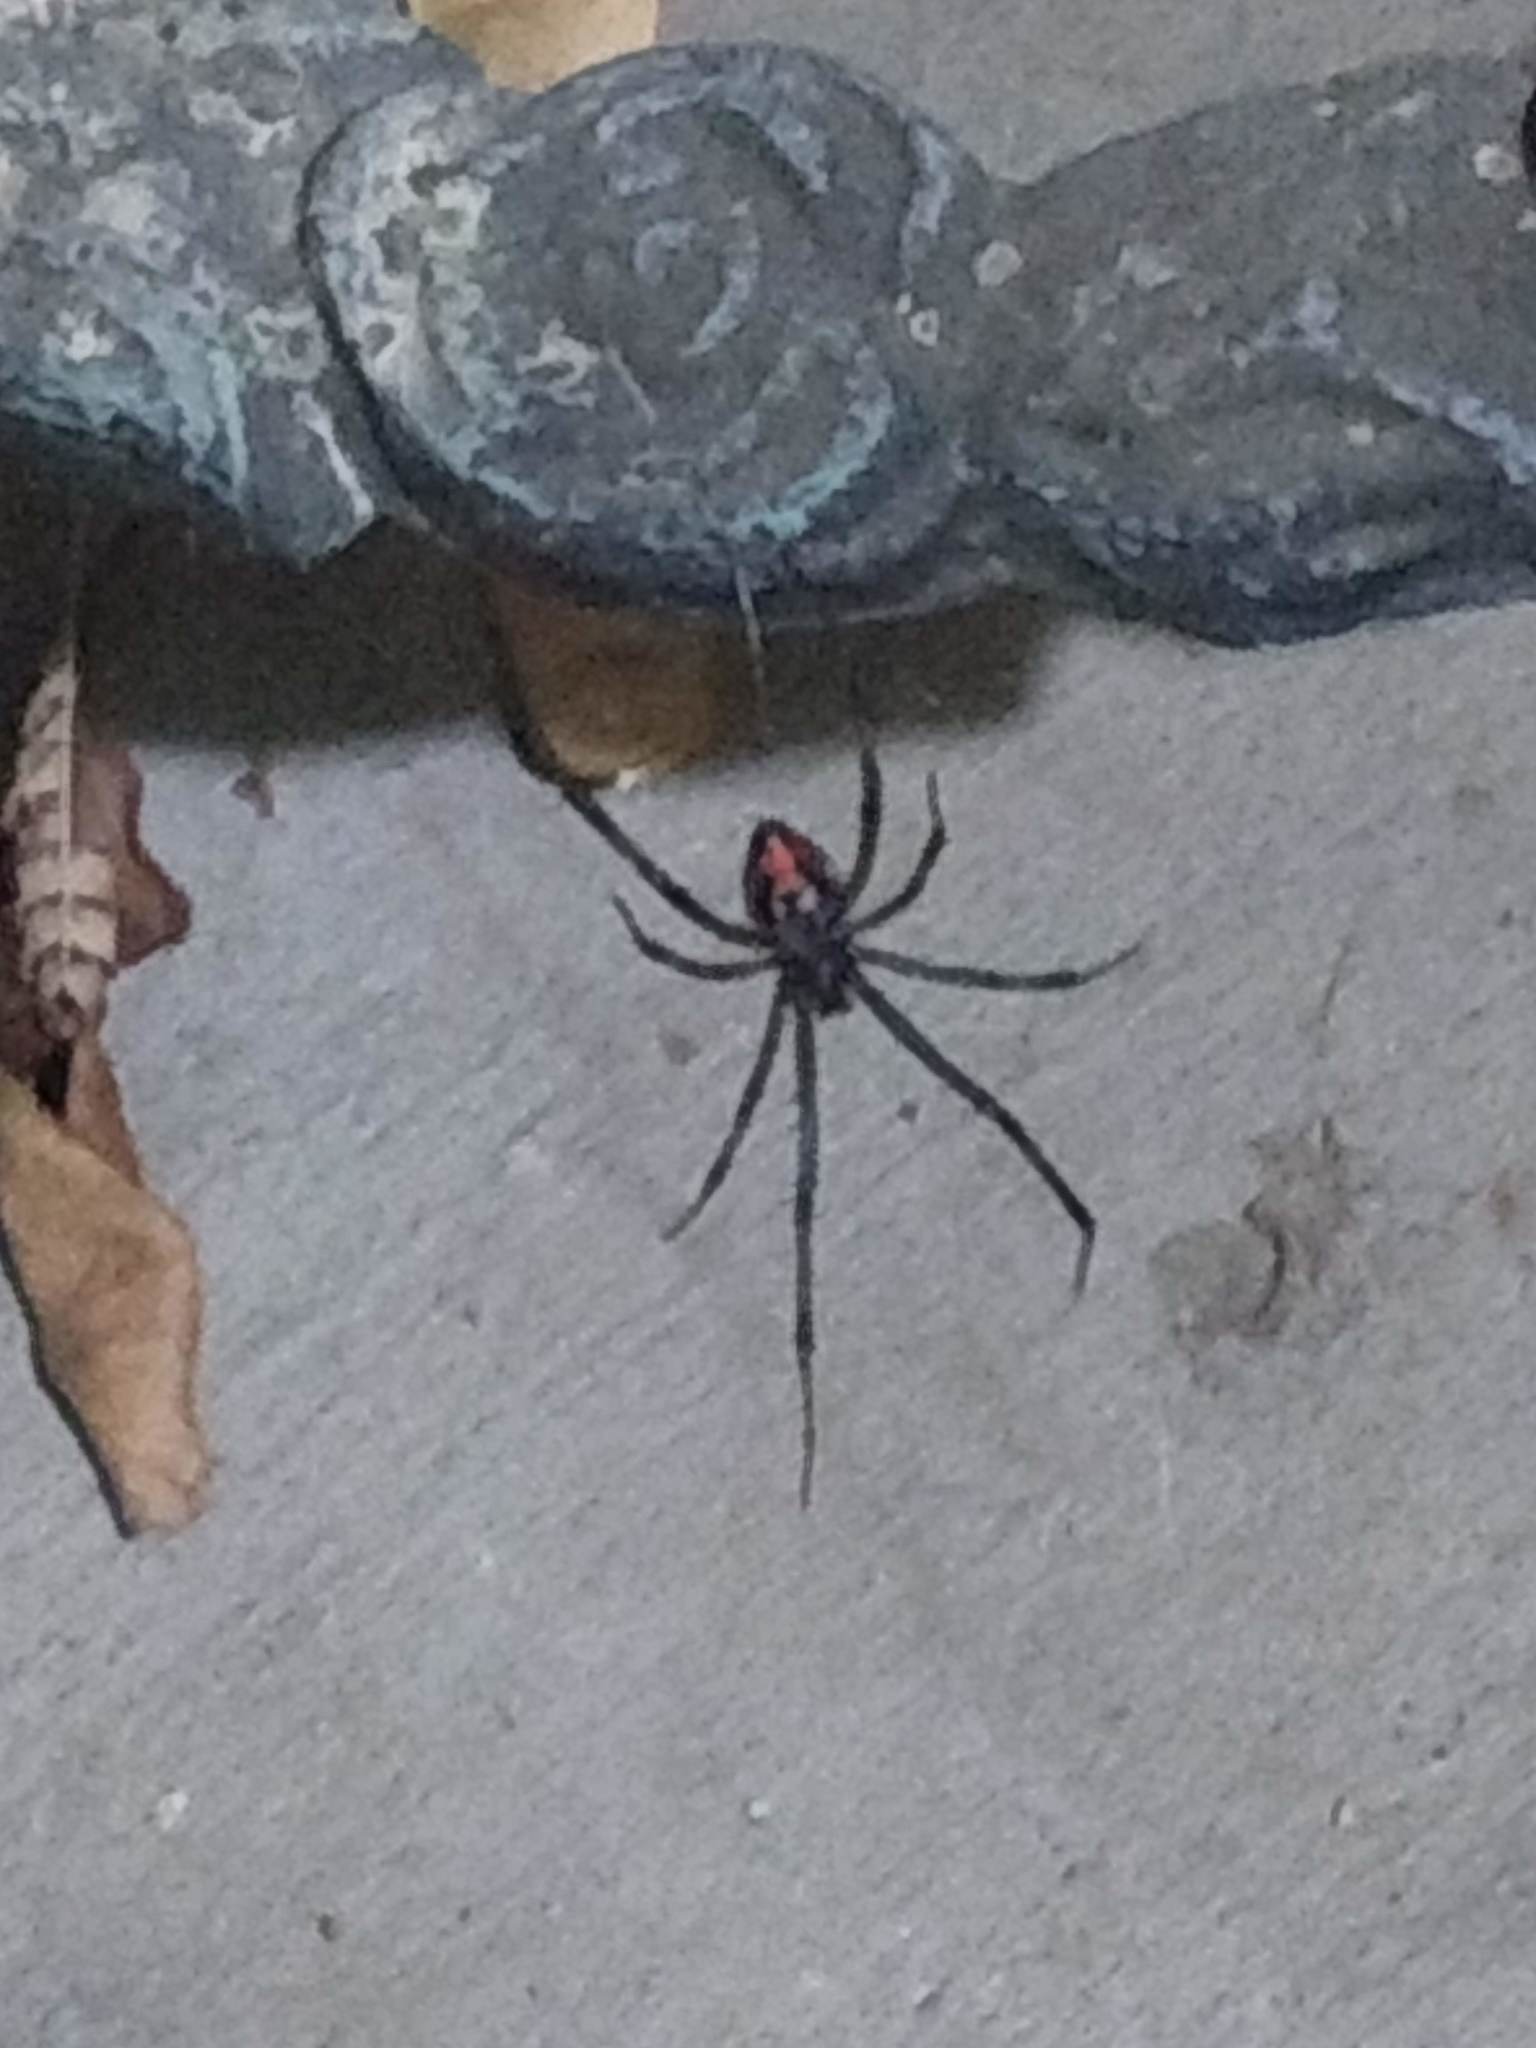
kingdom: Animalia
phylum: Arthropoda
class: Arachnida
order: Araneae
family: Theridiidae
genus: Latrodectus
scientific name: Latrodectus hesperus
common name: Western black widow
